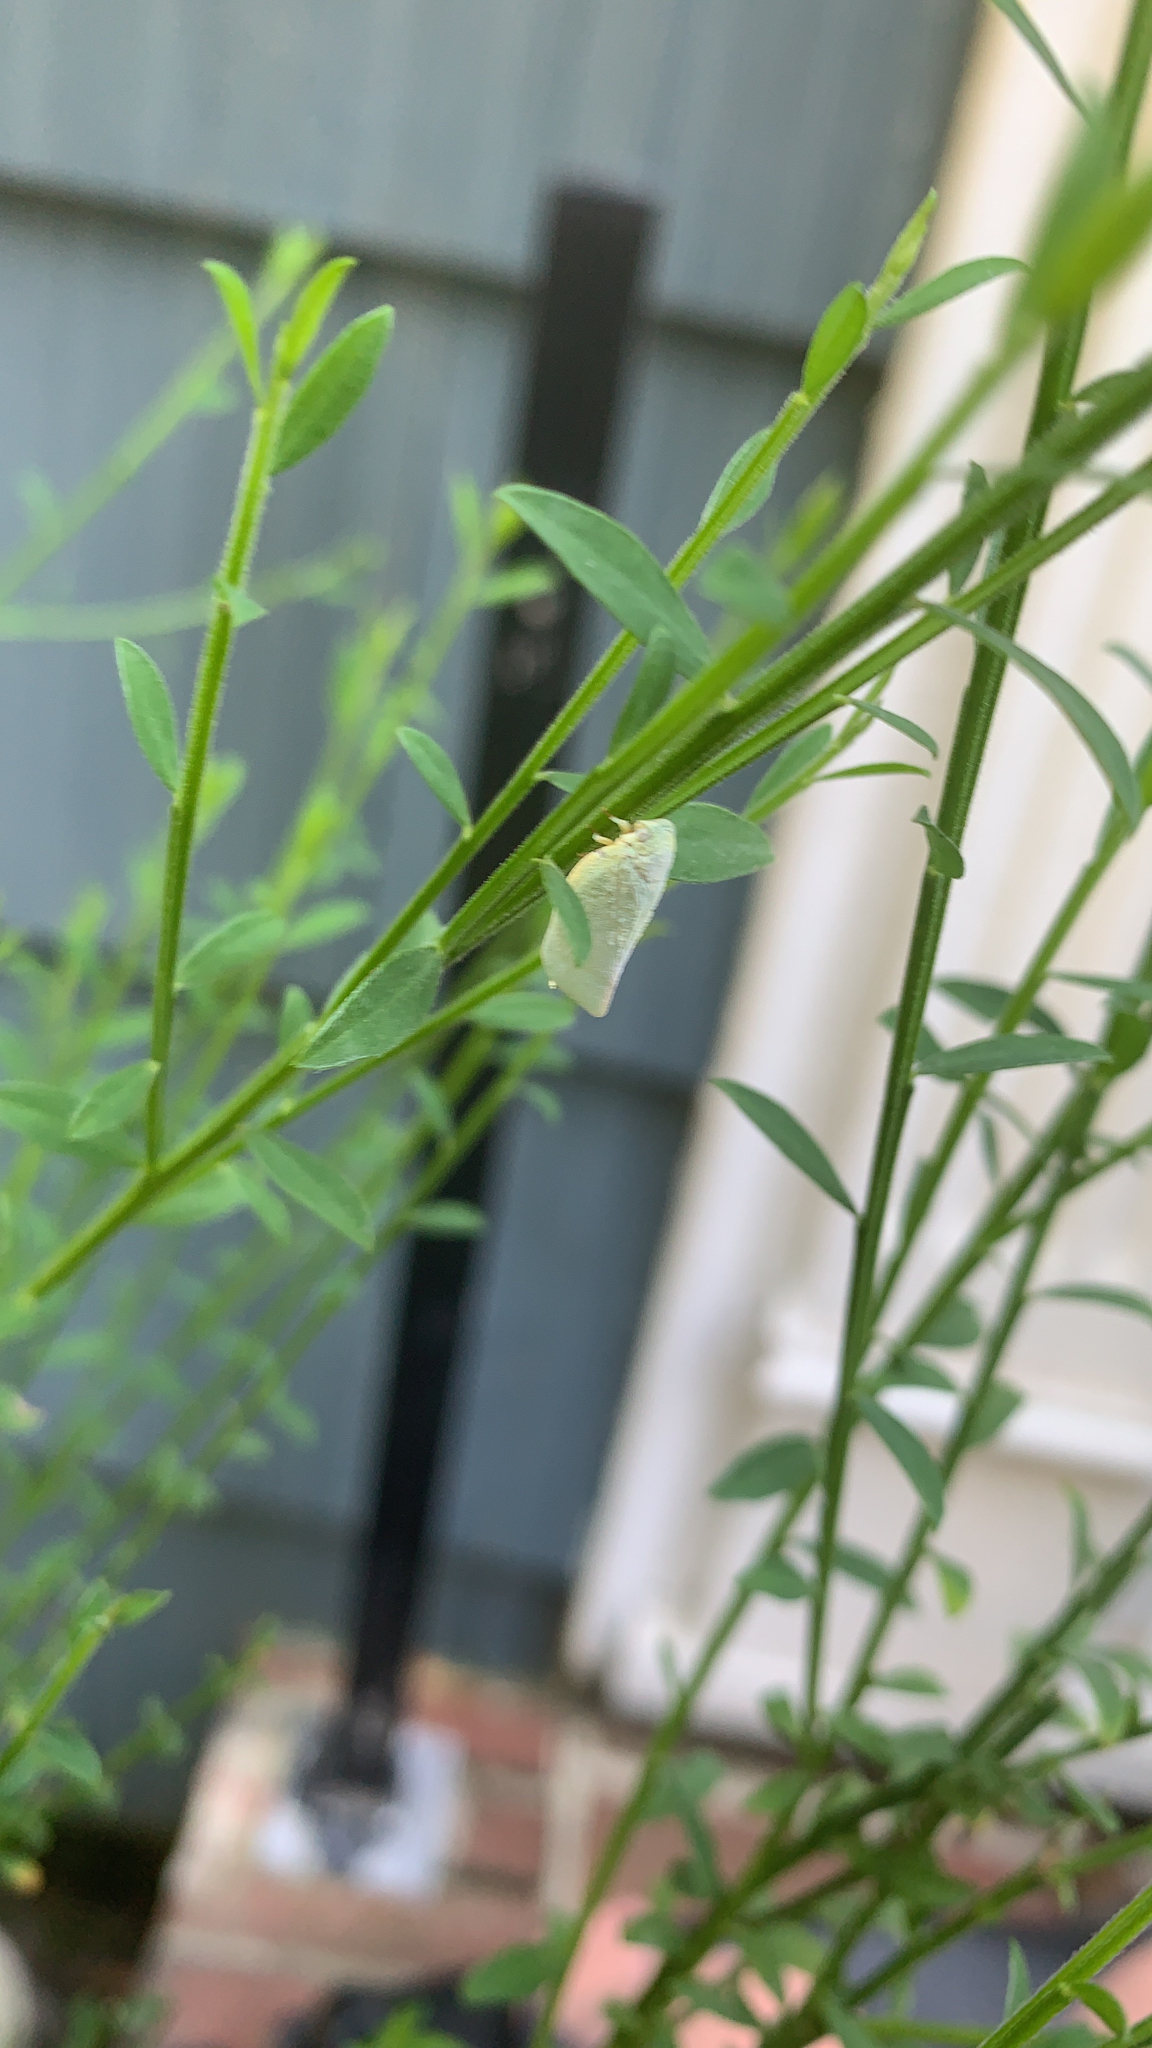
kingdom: Animalia
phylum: Arthropoda
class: Insecta
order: Hemiptera
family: Flatidae
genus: Flatormenis
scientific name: Flatormenis proxima
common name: Northern flatid planthopper
